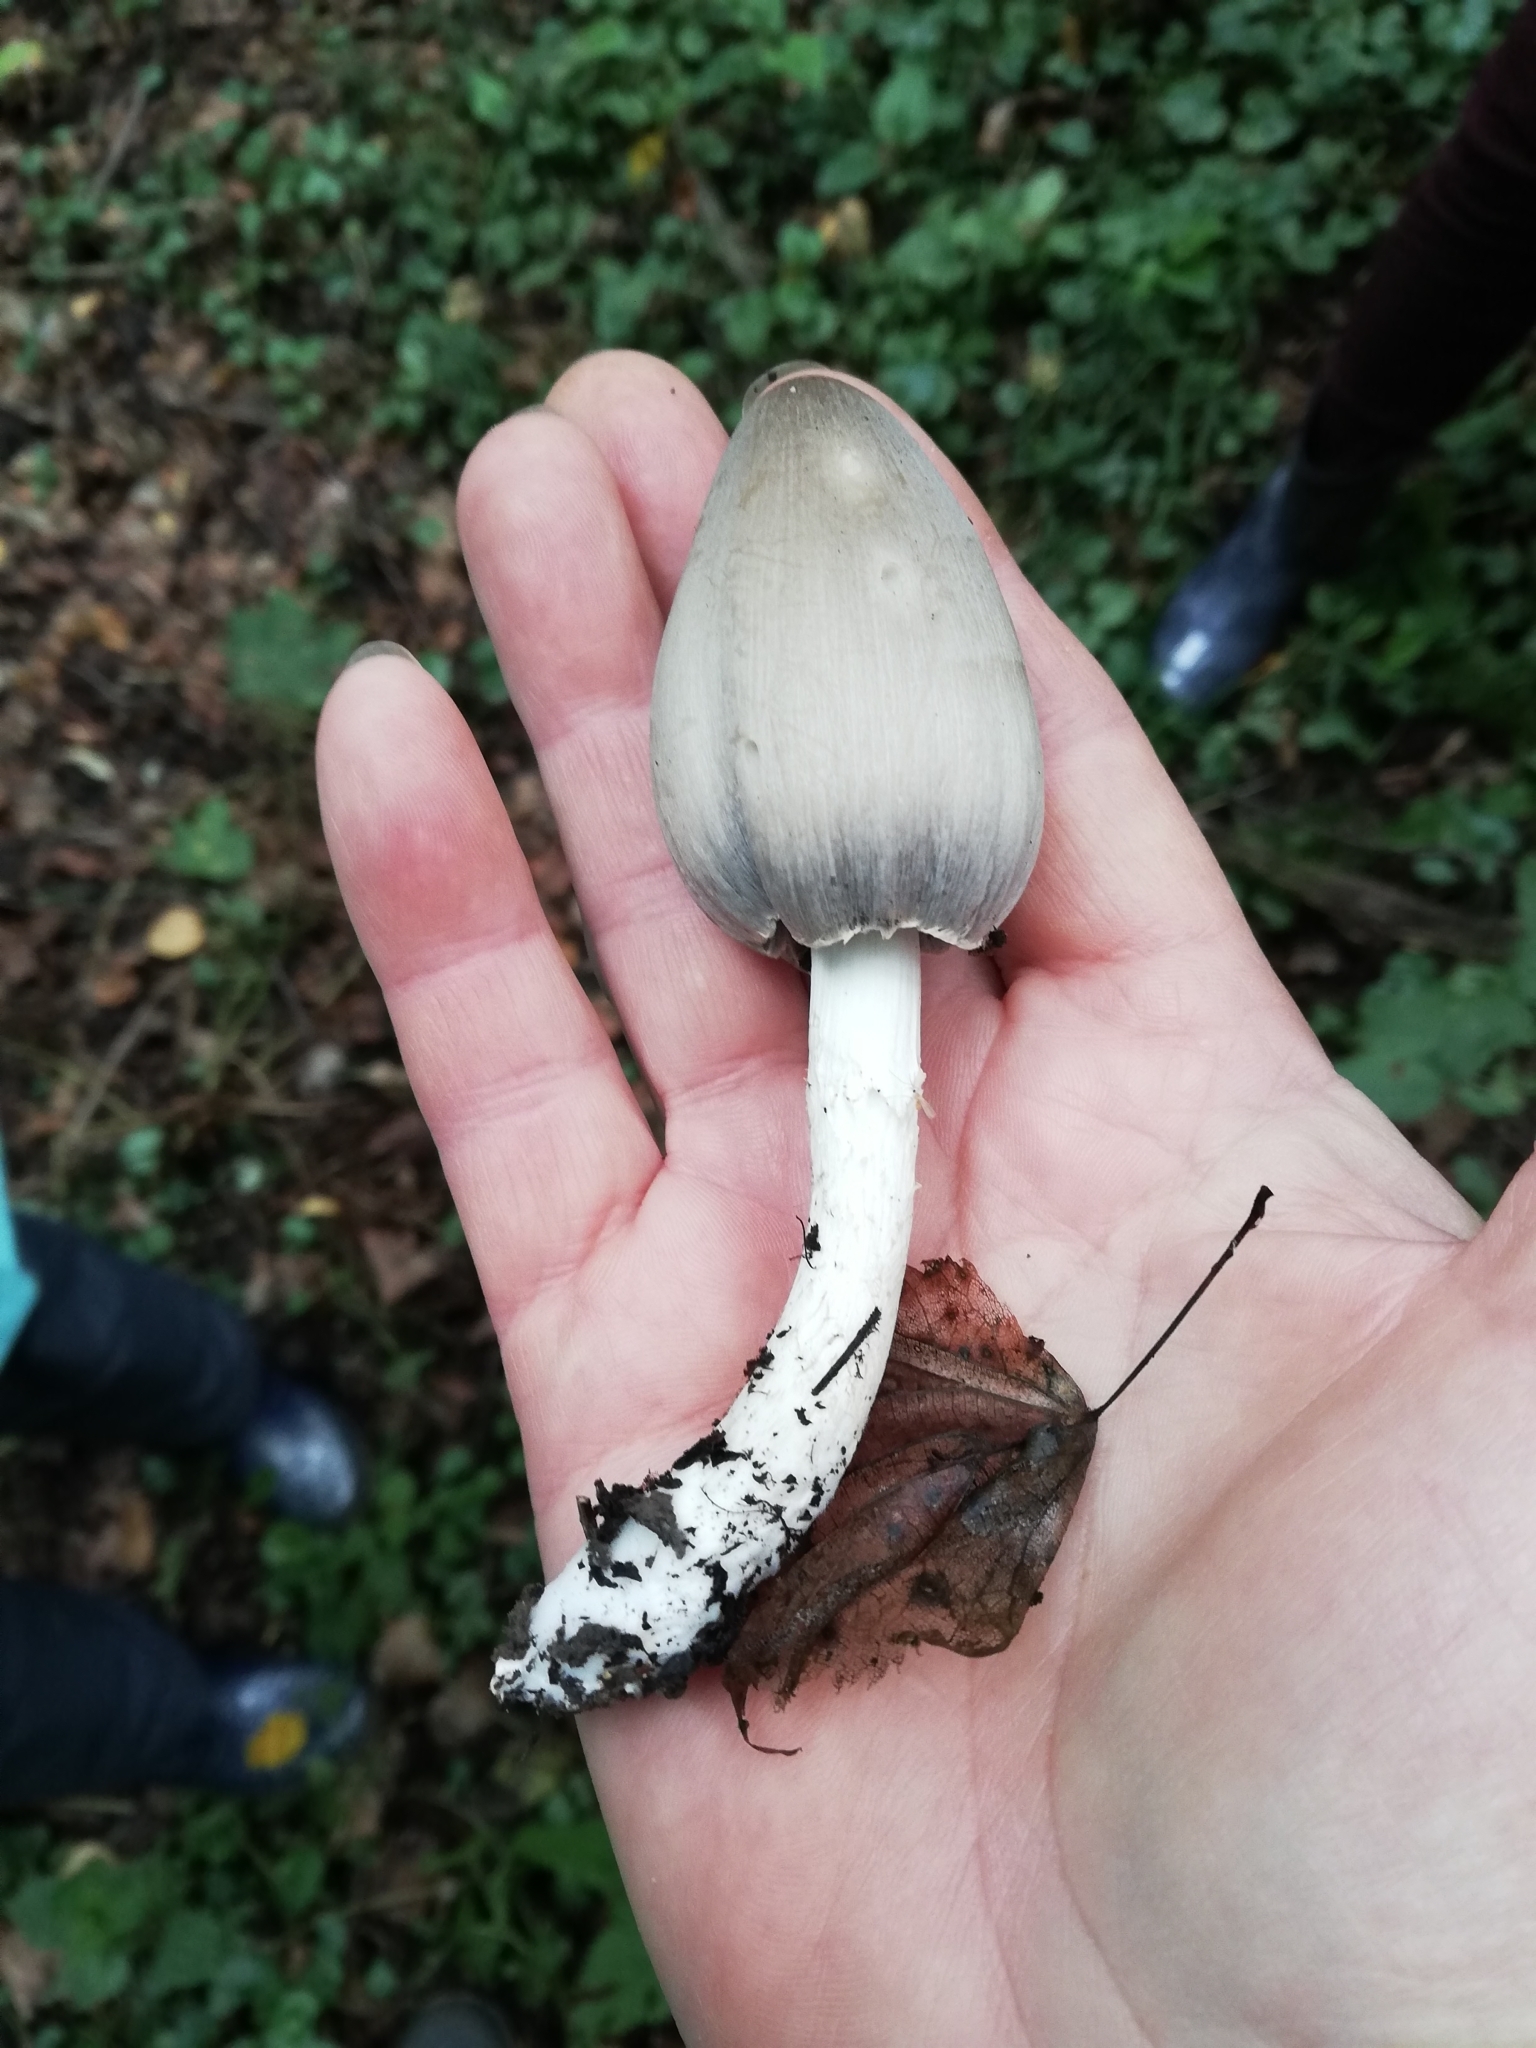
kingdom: Fungi
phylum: Basidiomycota
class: Agaricomycetes
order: Agaricales
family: Psathyrellaceae
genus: Coprinopsis
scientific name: Coprinopsis atramentaria
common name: Common ink-cap
